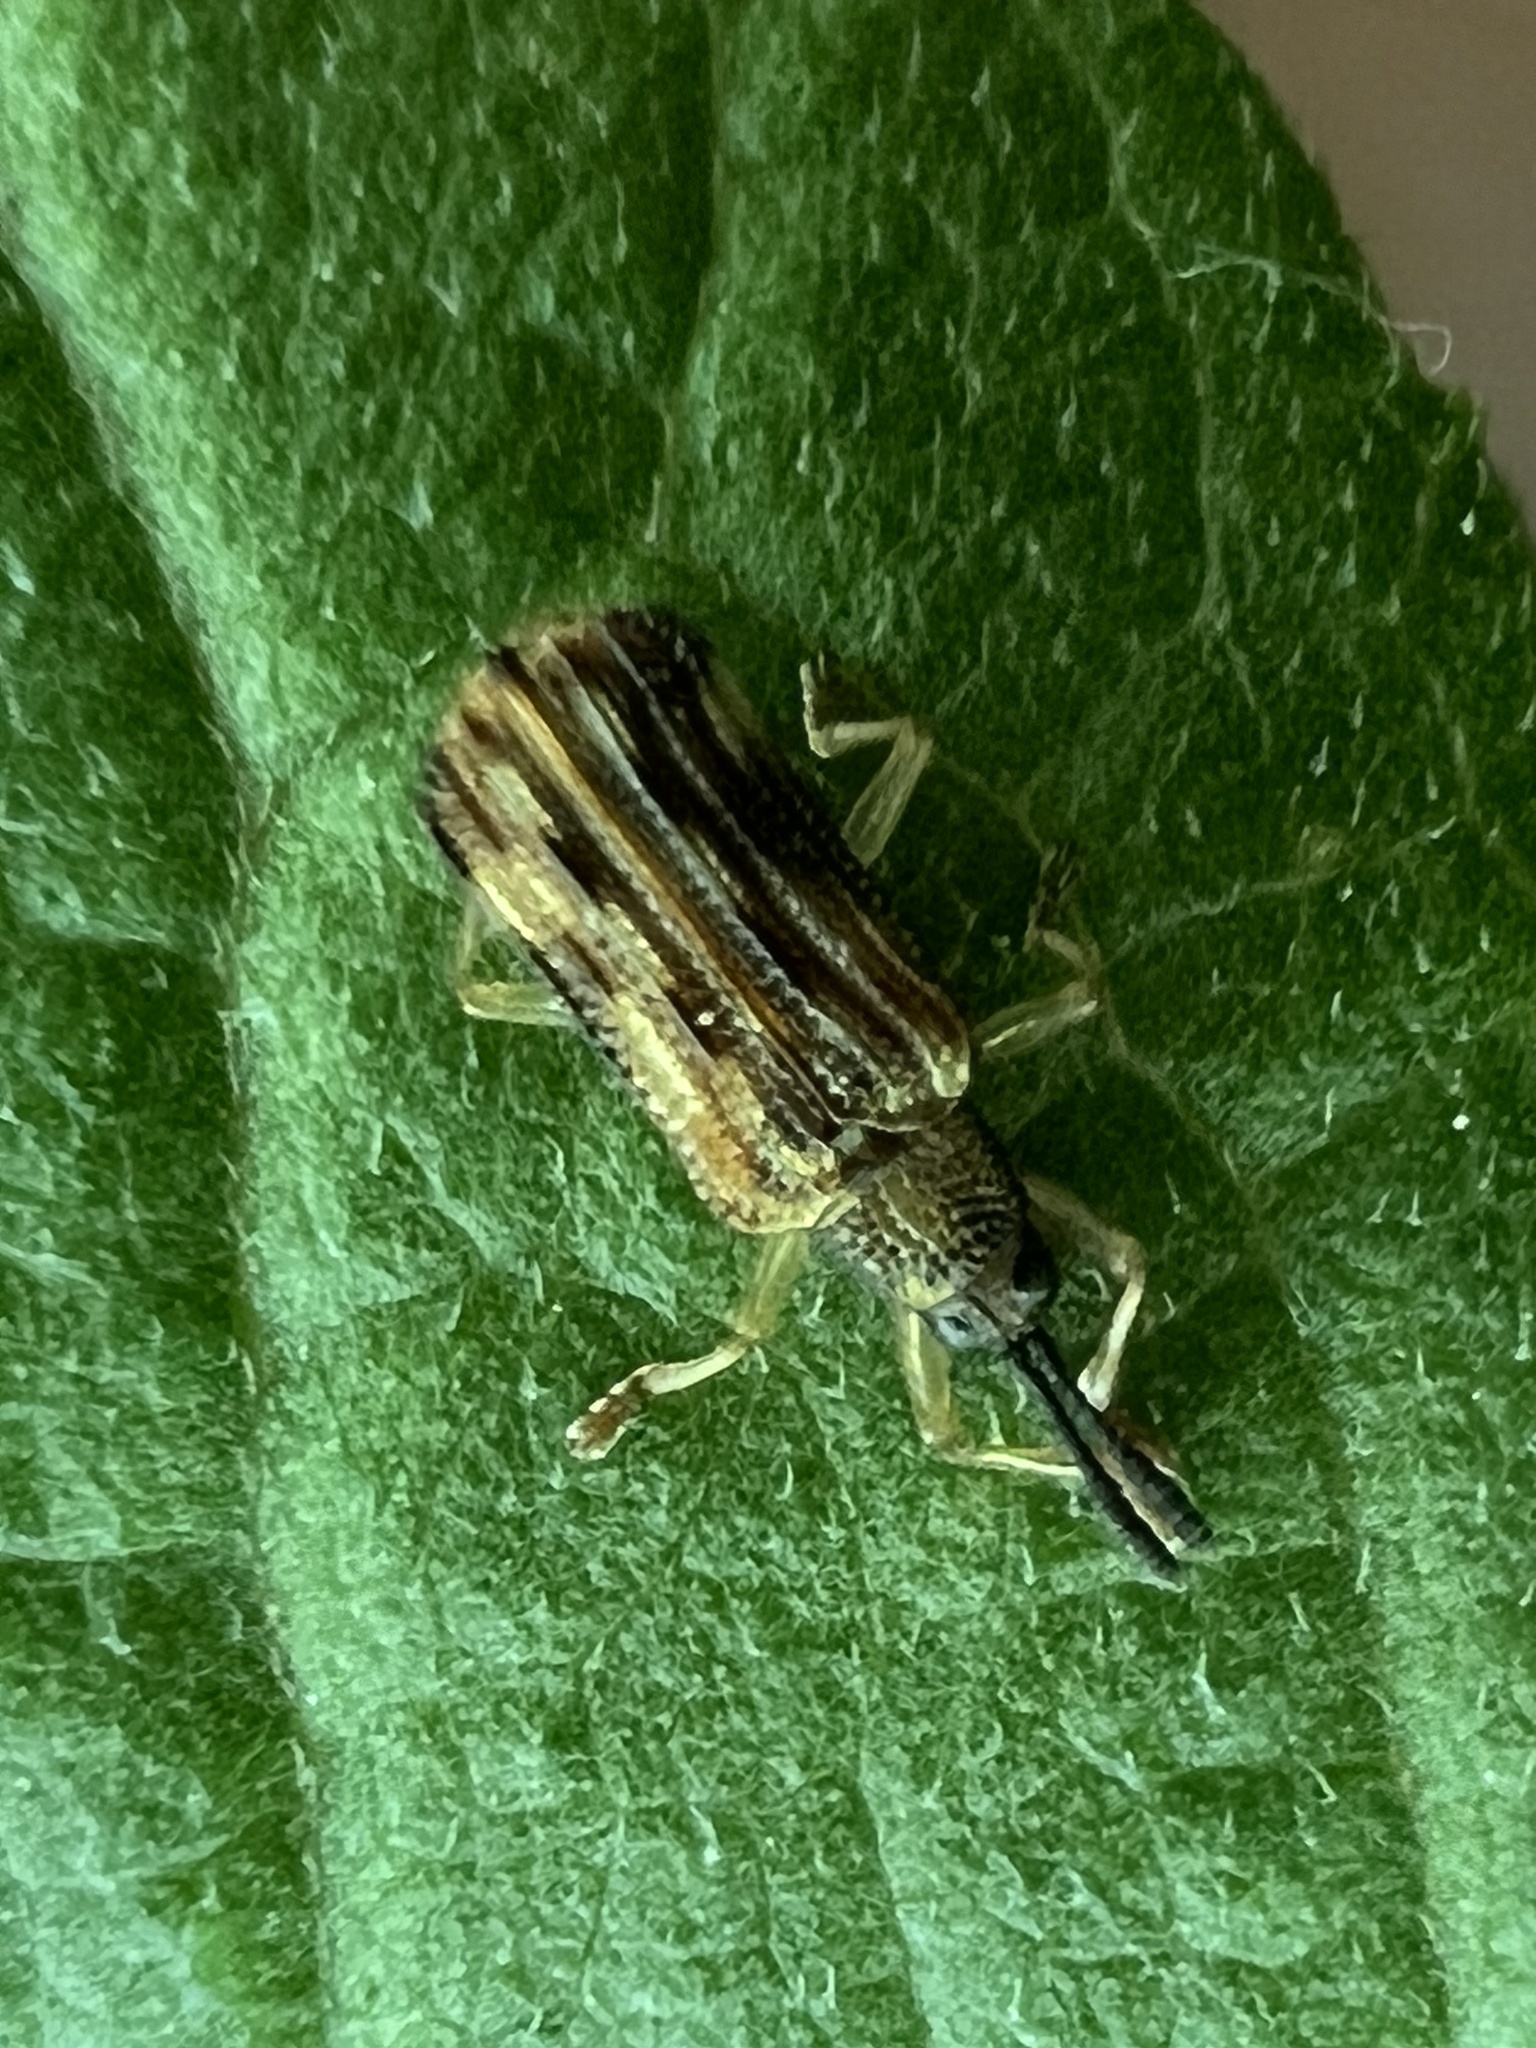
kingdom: Animalia
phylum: Arthropoda
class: Insecta
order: Coleoptera
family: Chrysomelidae
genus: Sumitrosis
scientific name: Sumitrosis inaequalis
